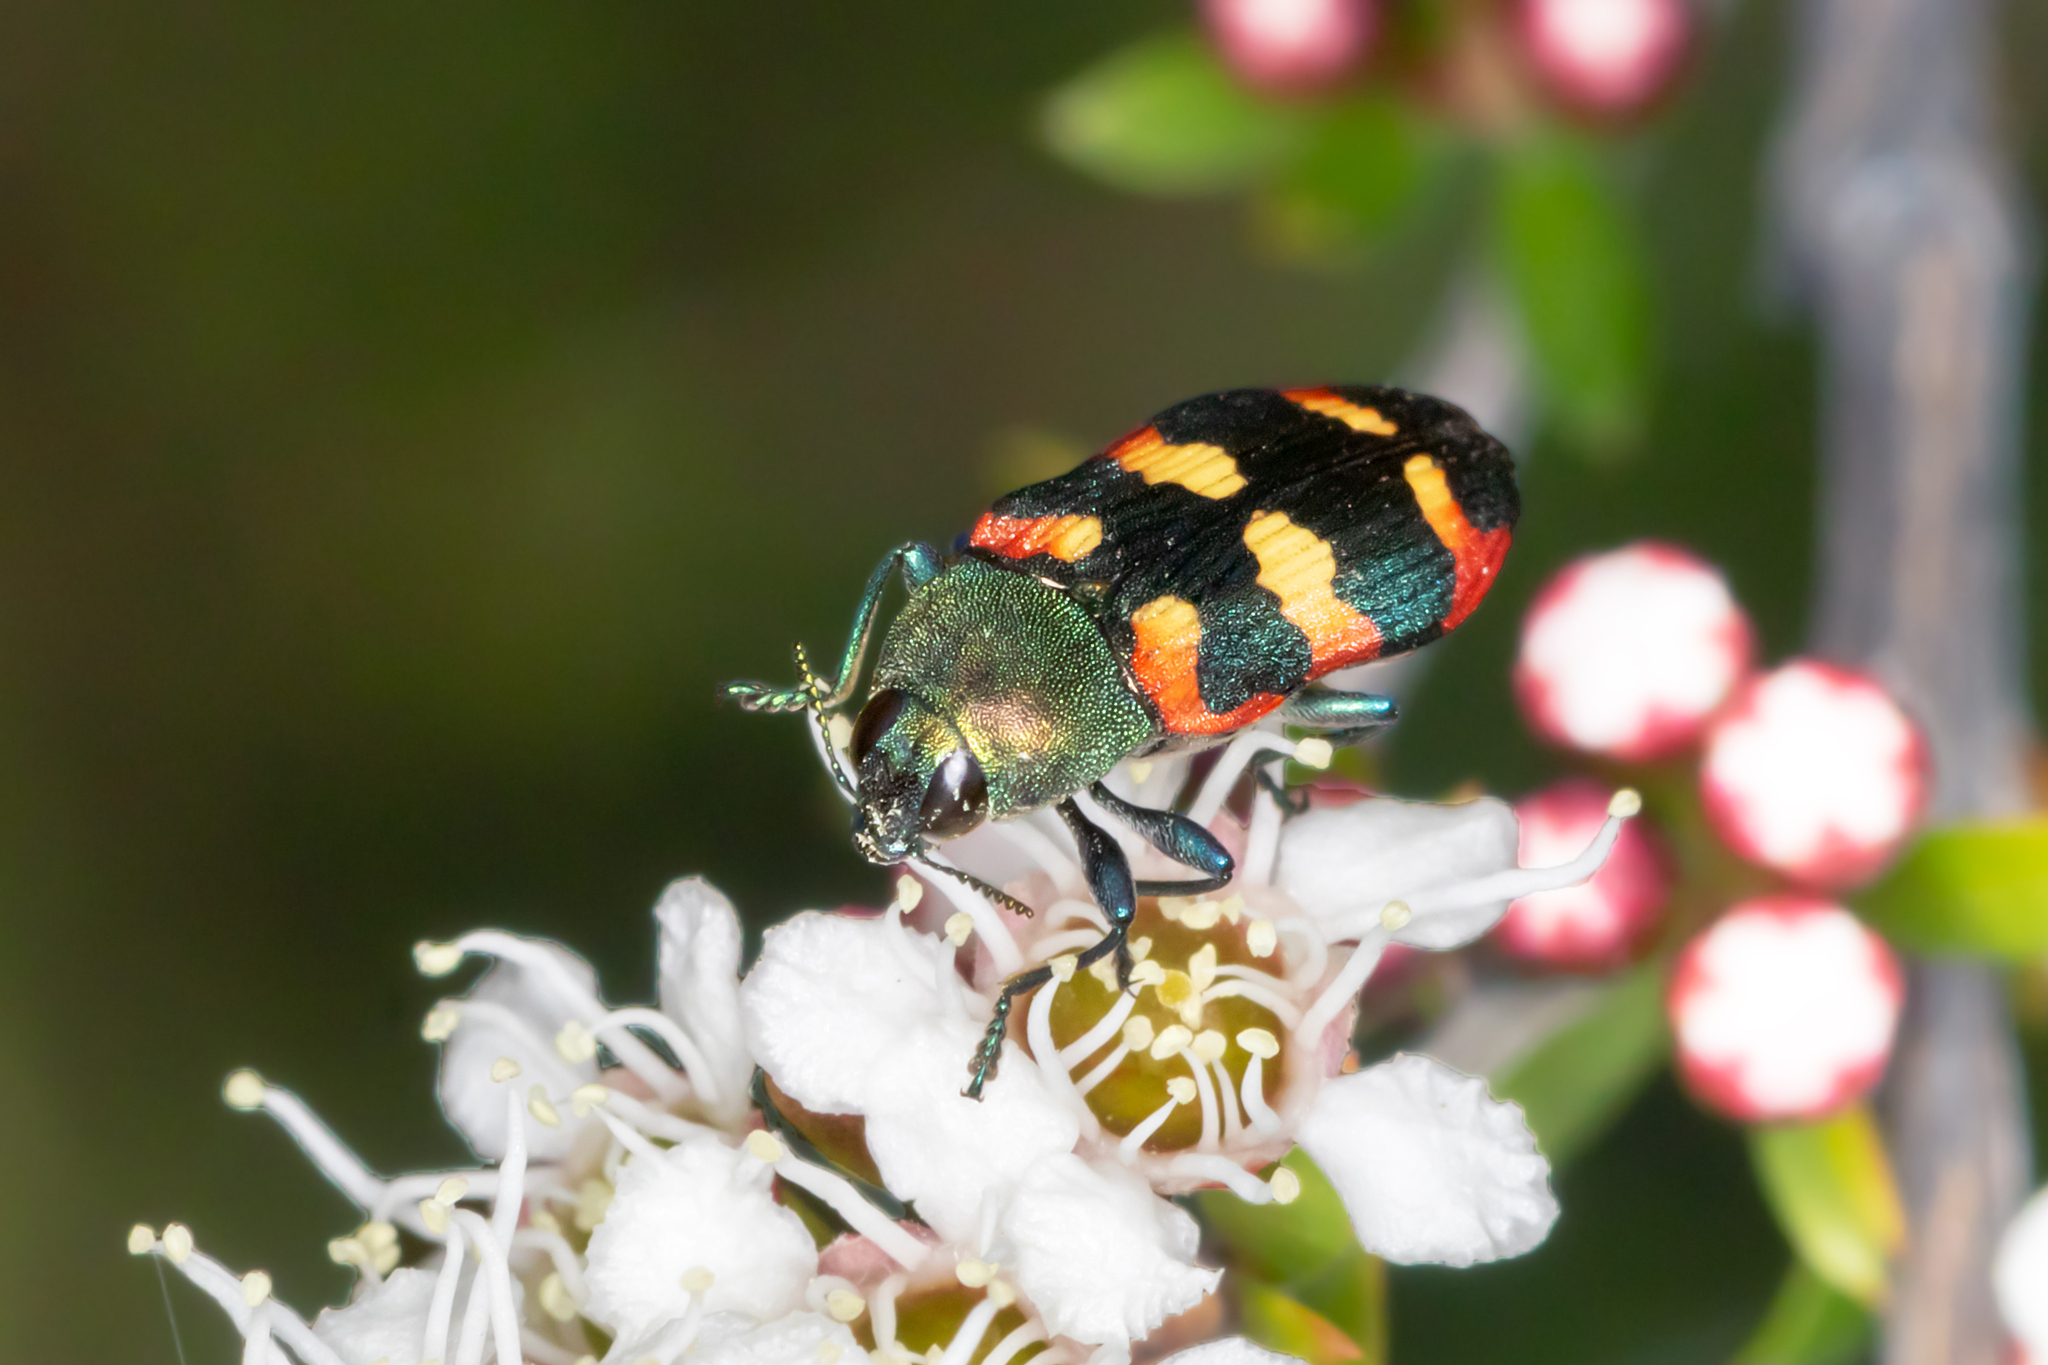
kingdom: Animalia
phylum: Arthropoda
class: Insecta
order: Coleoptera
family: Buprestidae
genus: Castiarina
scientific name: Castiarina sexplagiata
